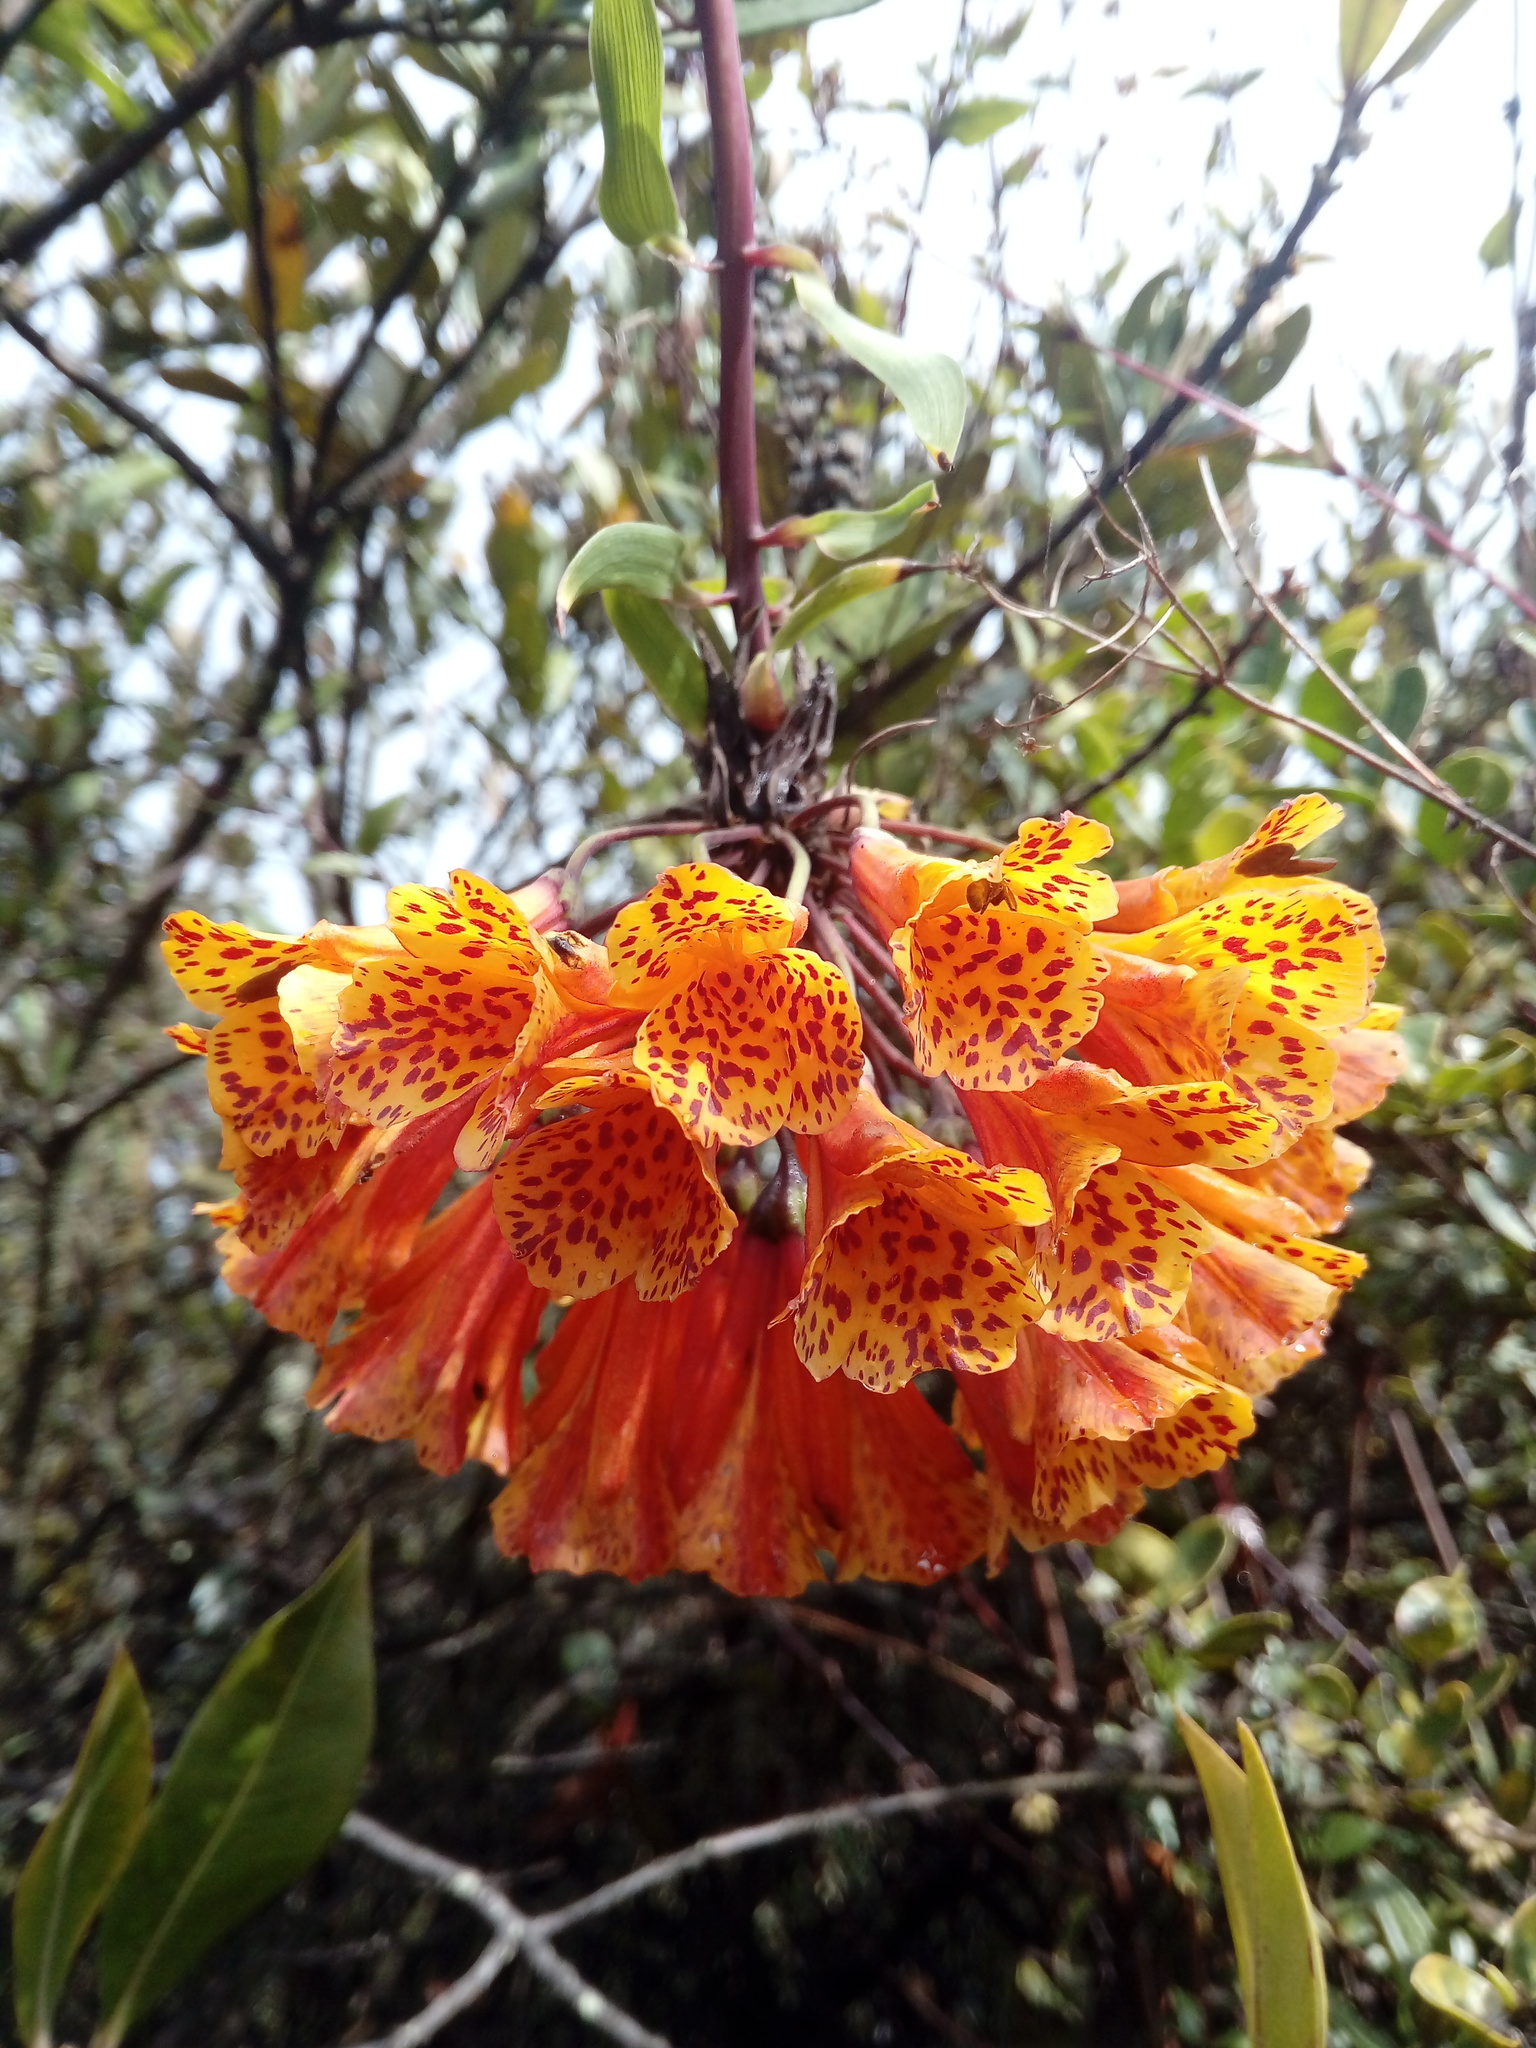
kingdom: Plantae
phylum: Tracheophyta
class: Liliopsida
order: Liliales
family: Alstroemeriaceae
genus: Bomarea
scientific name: Bomarea multiflora
